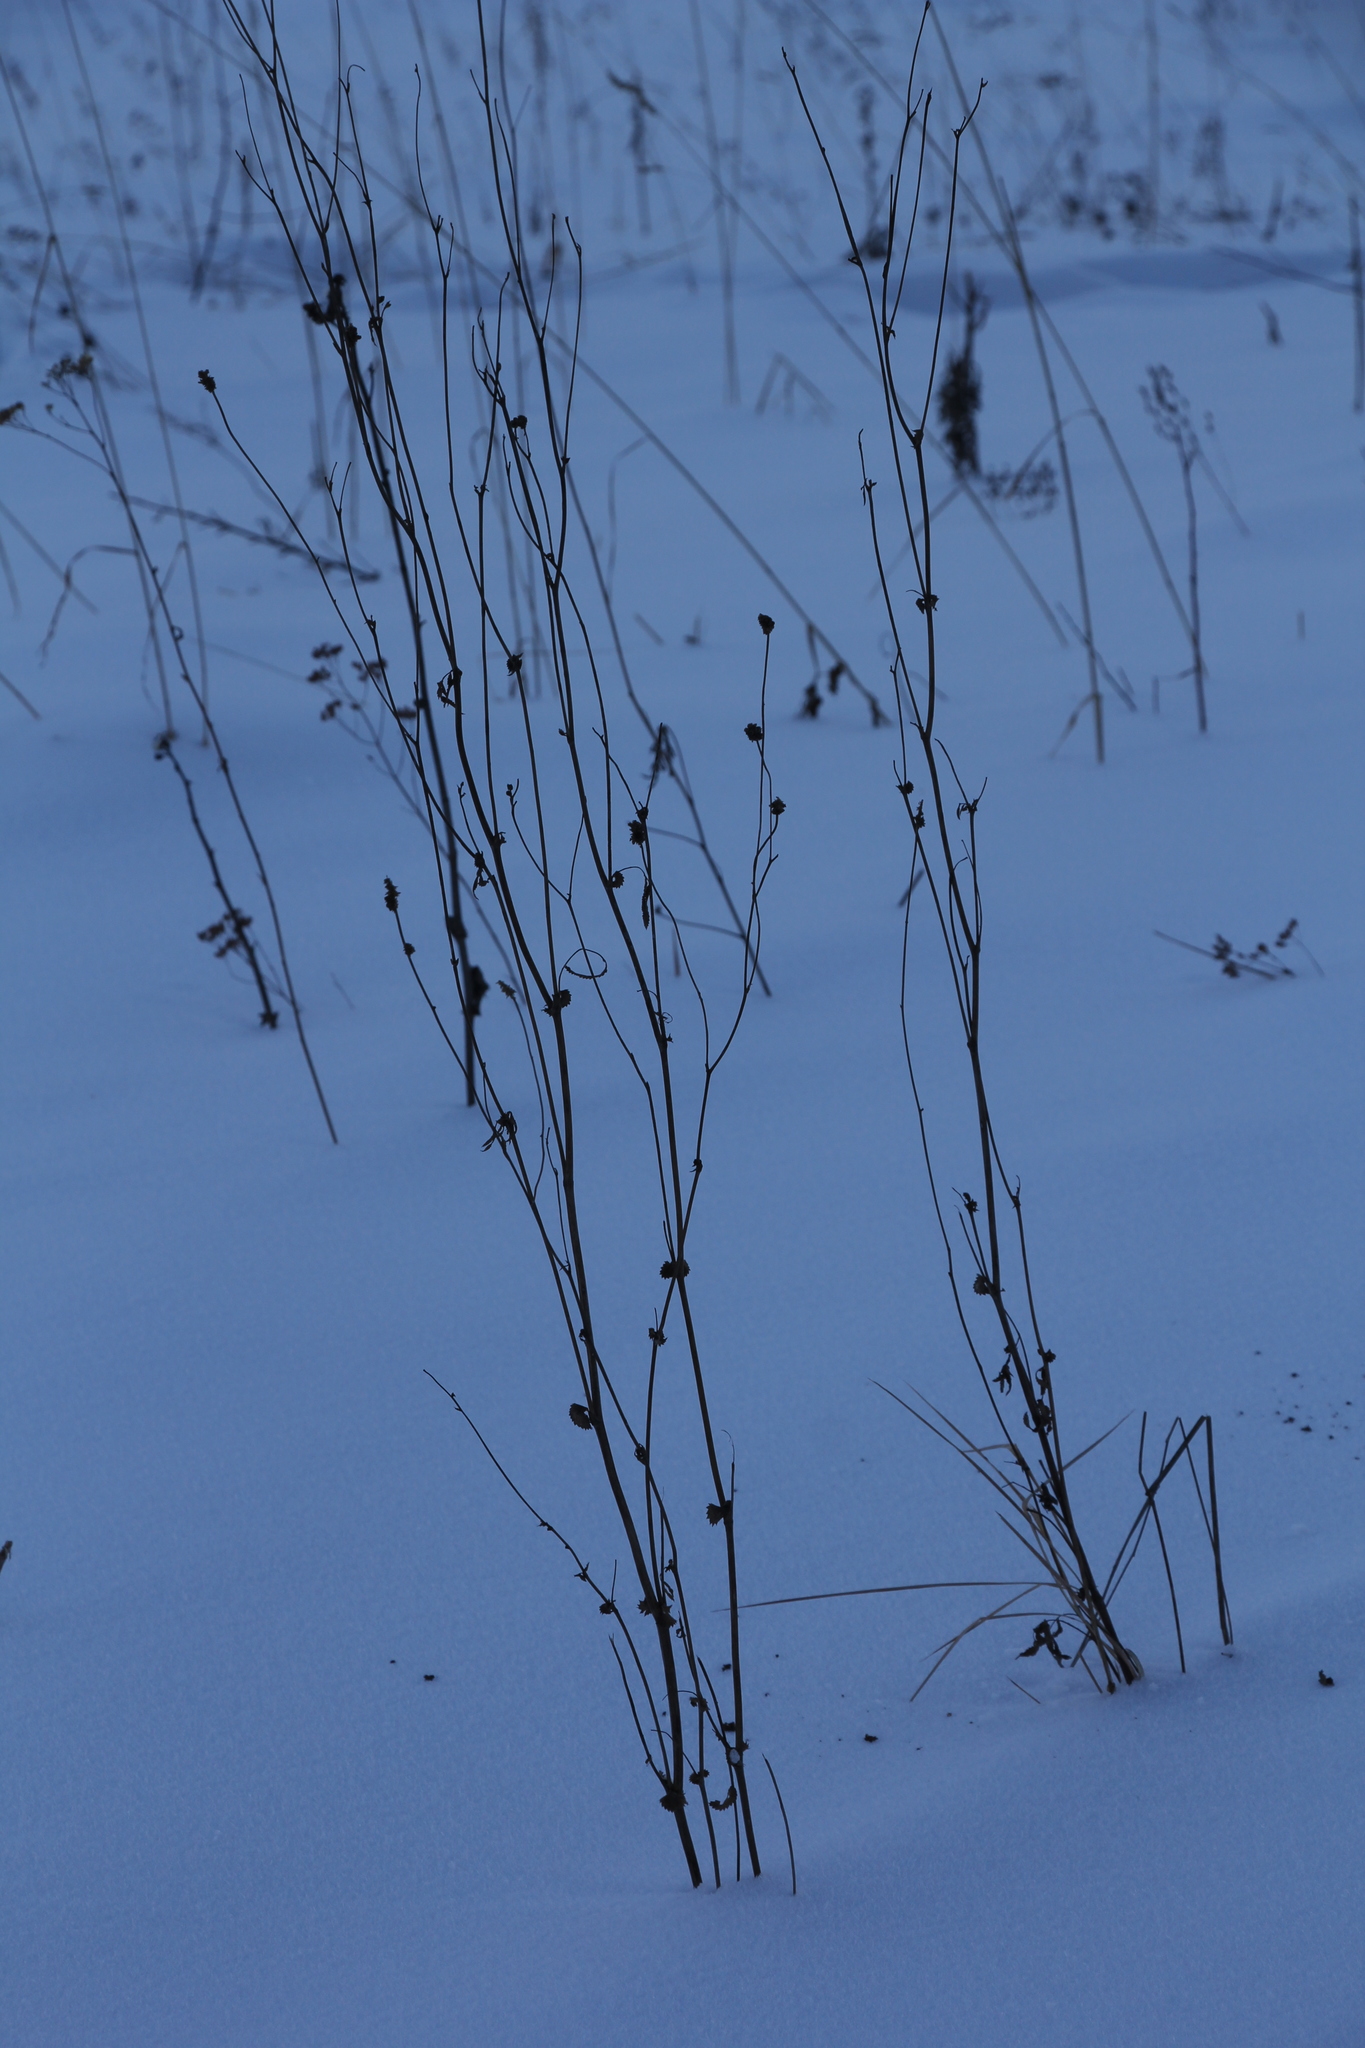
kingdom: Plantae
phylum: Tracheophyta
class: Magnoliopsida
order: Rosales
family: Rosaceae
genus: Sanguisorba
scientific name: Sanguisorba officinalis
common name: Great burnet
